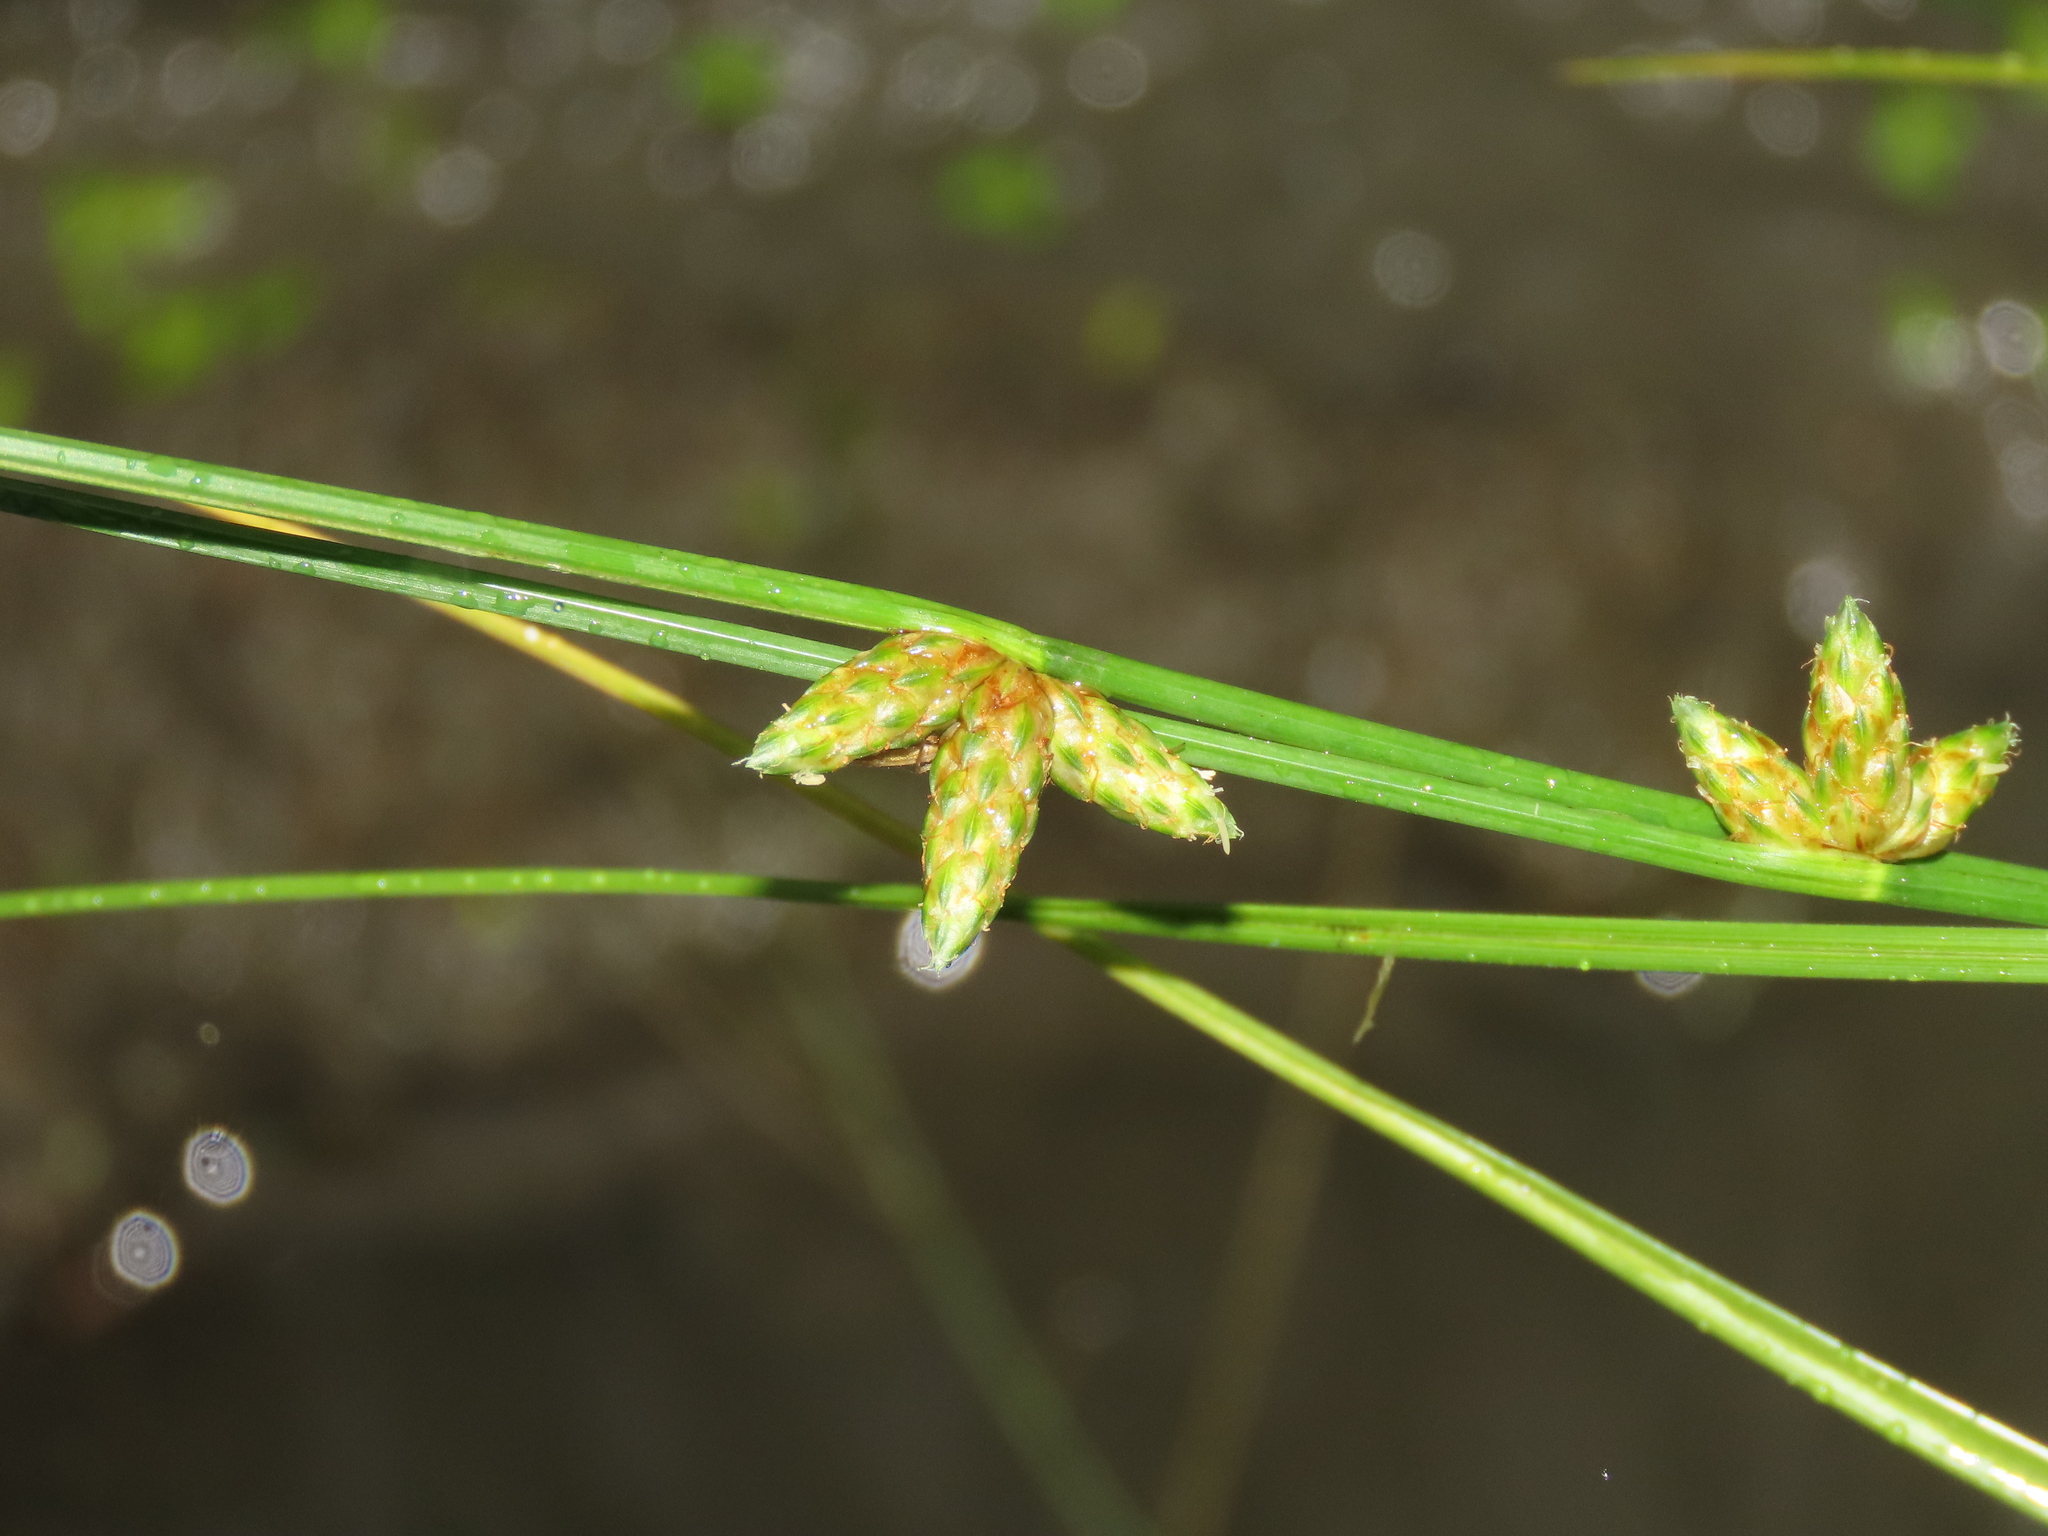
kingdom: Plantae
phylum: Tracheophyta
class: Liliopsida
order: Poales
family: Cyperaceae
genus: Schoenoplectiella
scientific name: Schoenoplectiella juncoides
